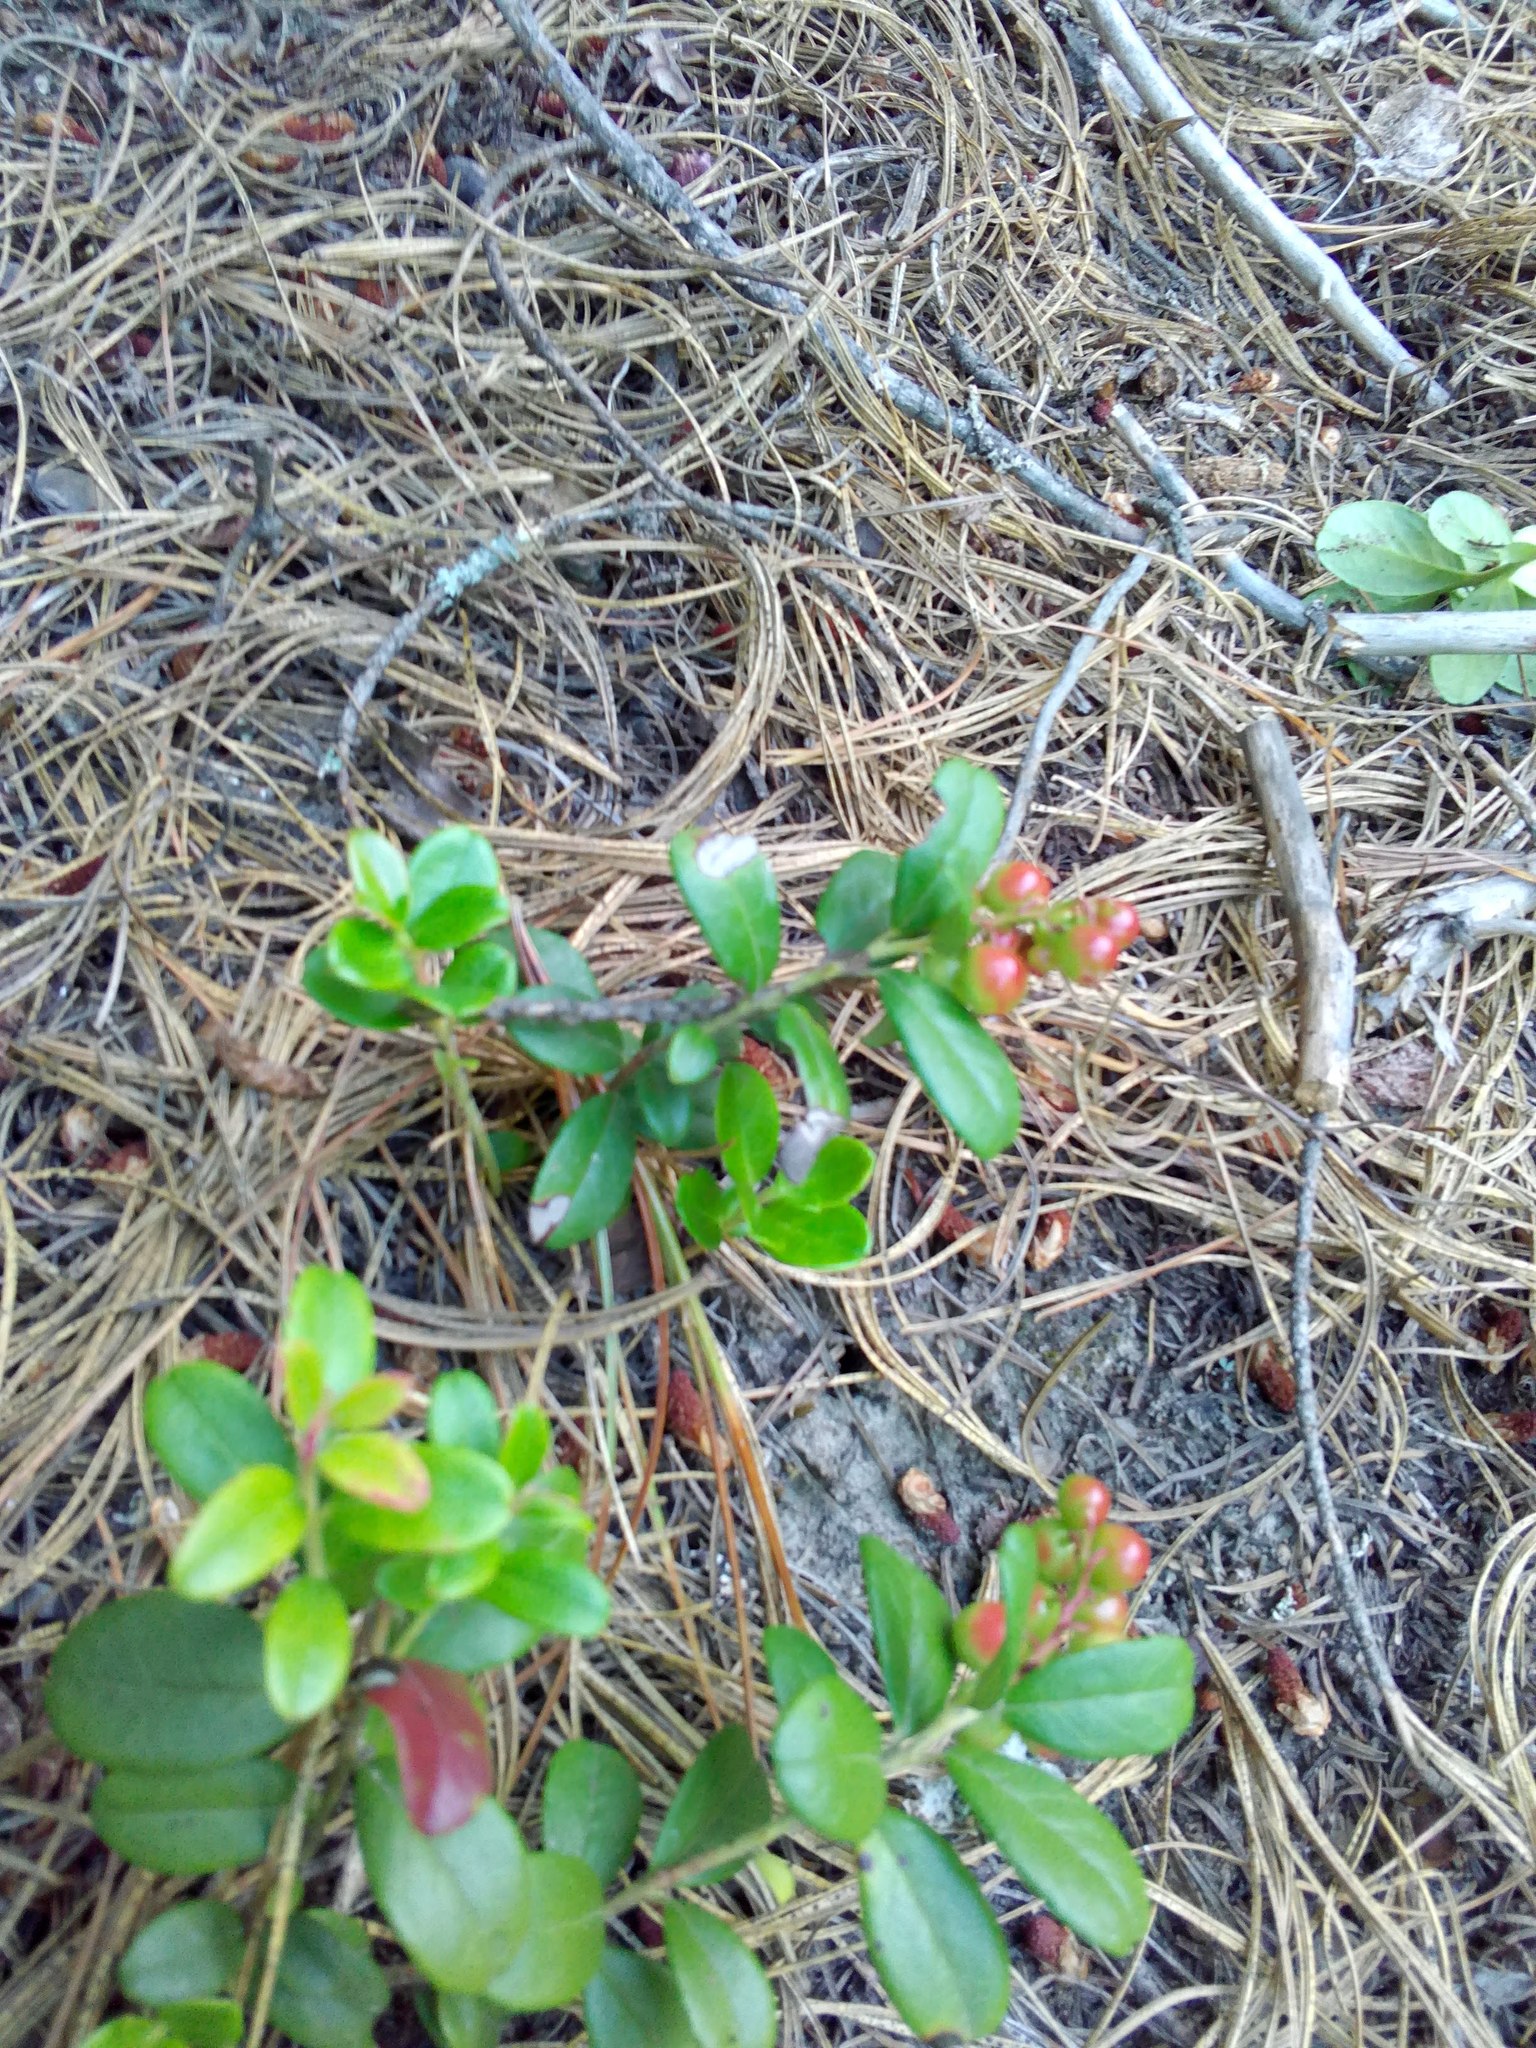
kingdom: Plantae
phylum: Tracheophyta
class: Magnoliopsida
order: Ericales
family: Ericaceae
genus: Vaccinium
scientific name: Vaccinium vitis-idaea
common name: Cowberry
